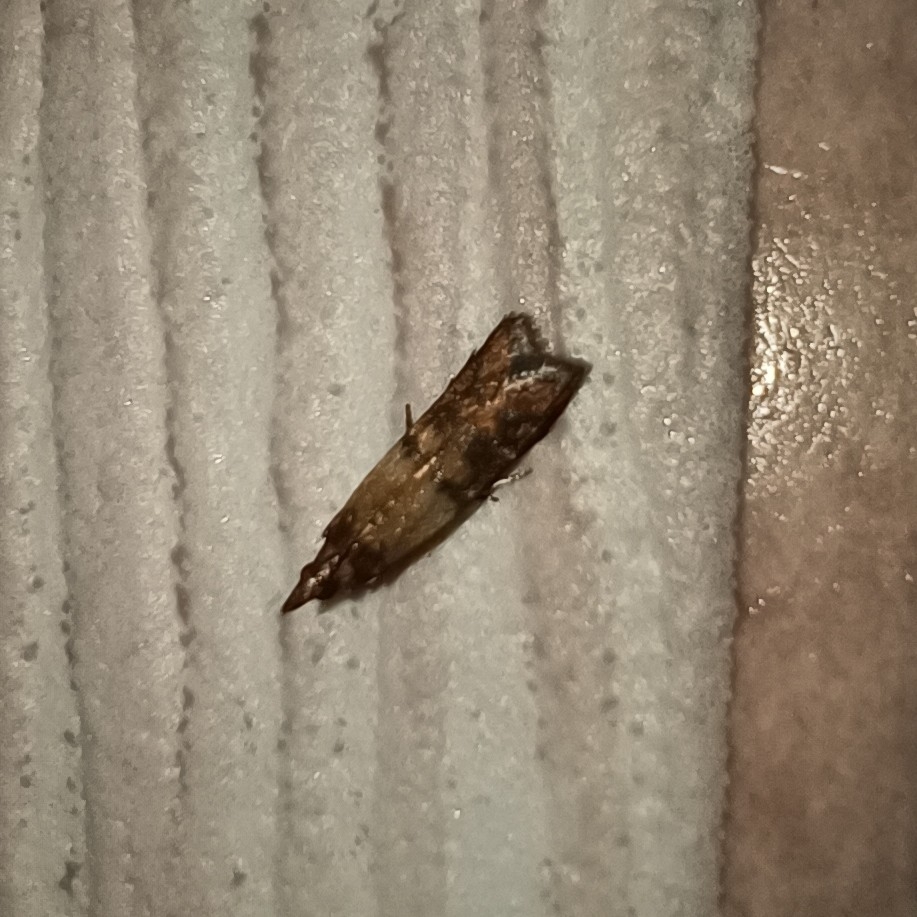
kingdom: Animalia
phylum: Arthropoda
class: Insecta
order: Lepidoptera
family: Pyralidae
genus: Plodia
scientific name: Plodia interpunctella
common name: Indian meal moth
